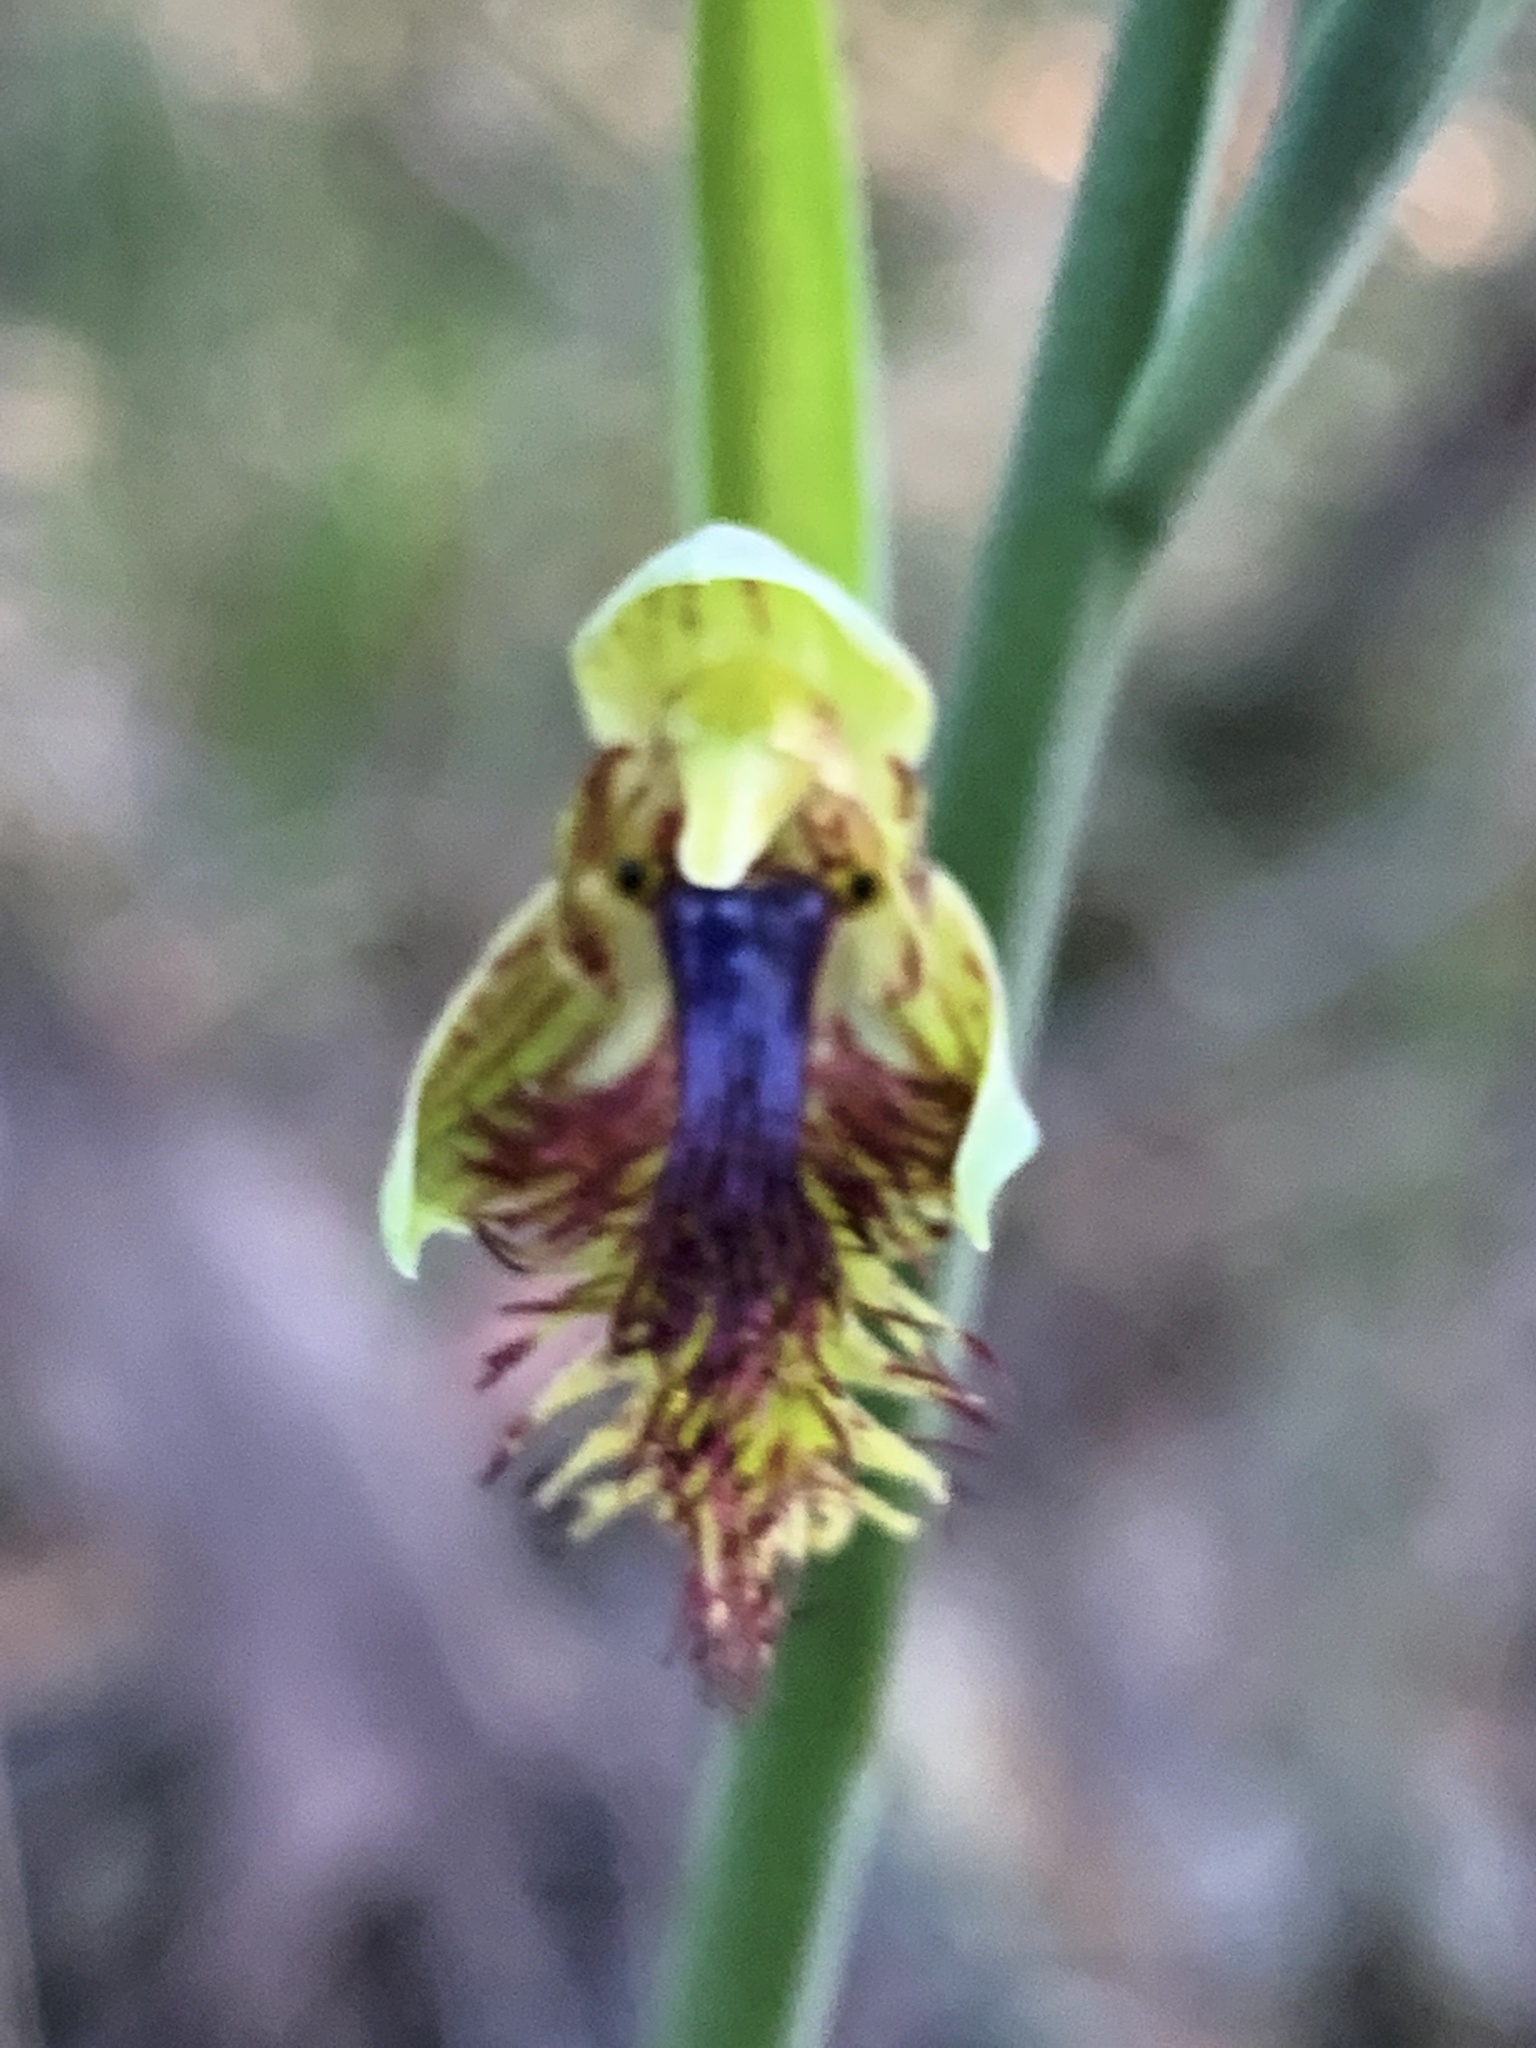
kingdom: Plantae
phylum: Tracheophyta
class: Liliopsida
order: Asparagales
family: Orchidaceae
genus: Calochilus
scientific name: Calochilus campestris
